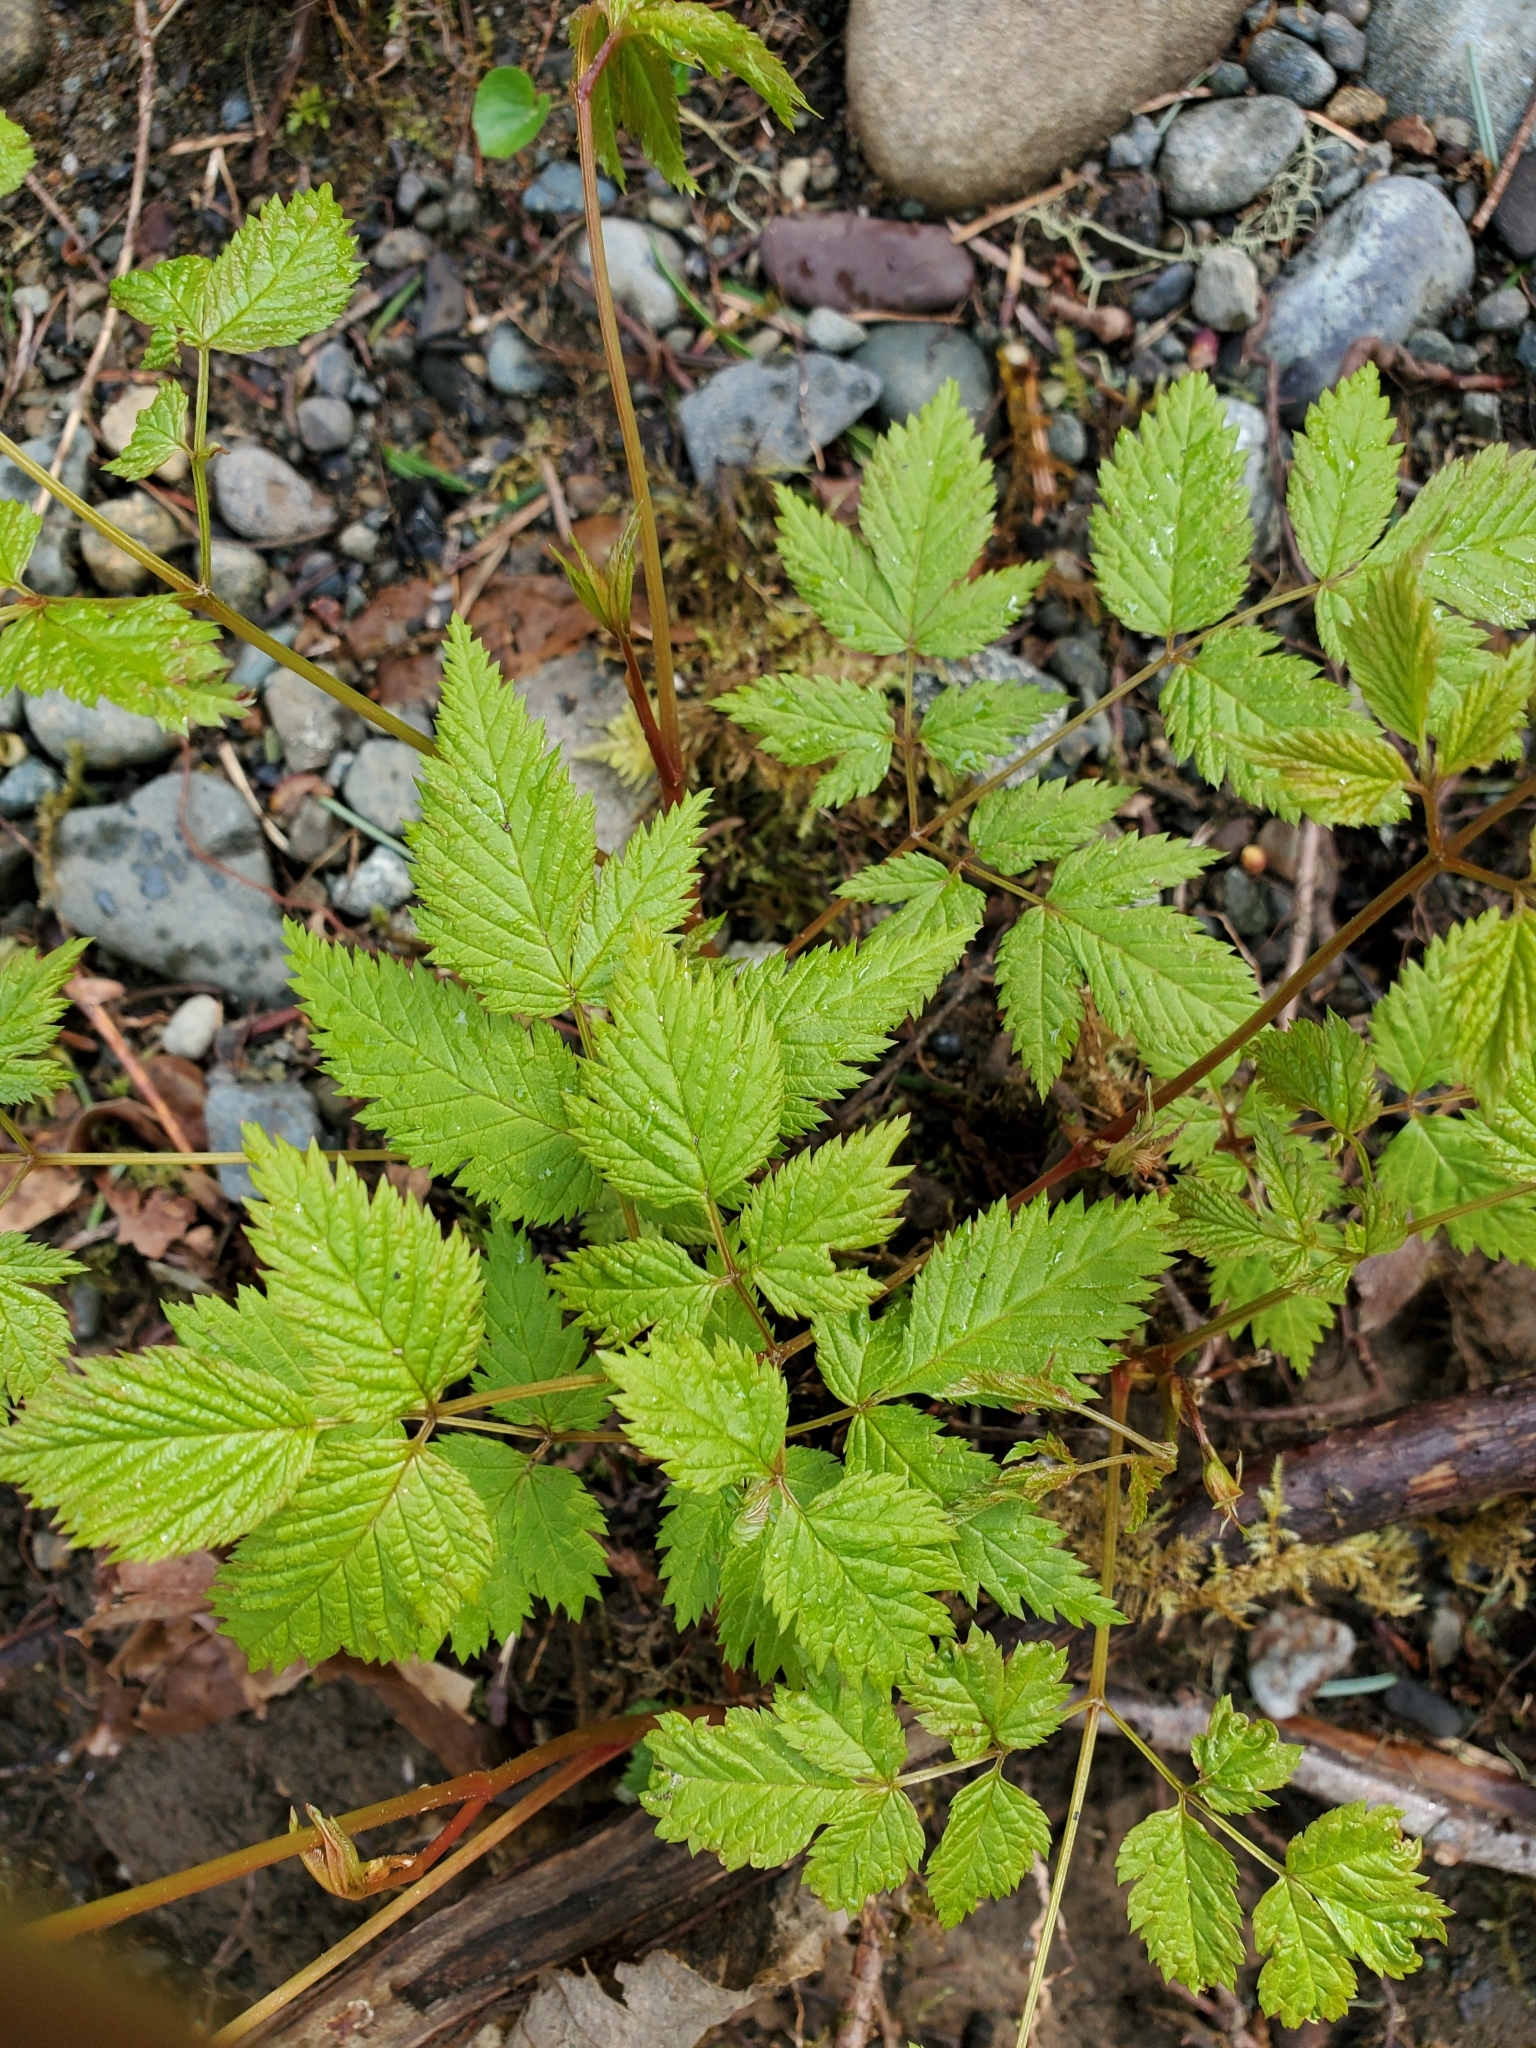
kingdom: Plantae
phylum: Tracheophyta
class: Magnoliopsida
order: Rosales
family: Rosaceae
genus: Aruncus
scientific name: Aruncus dioicus
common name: Buck's-beard
